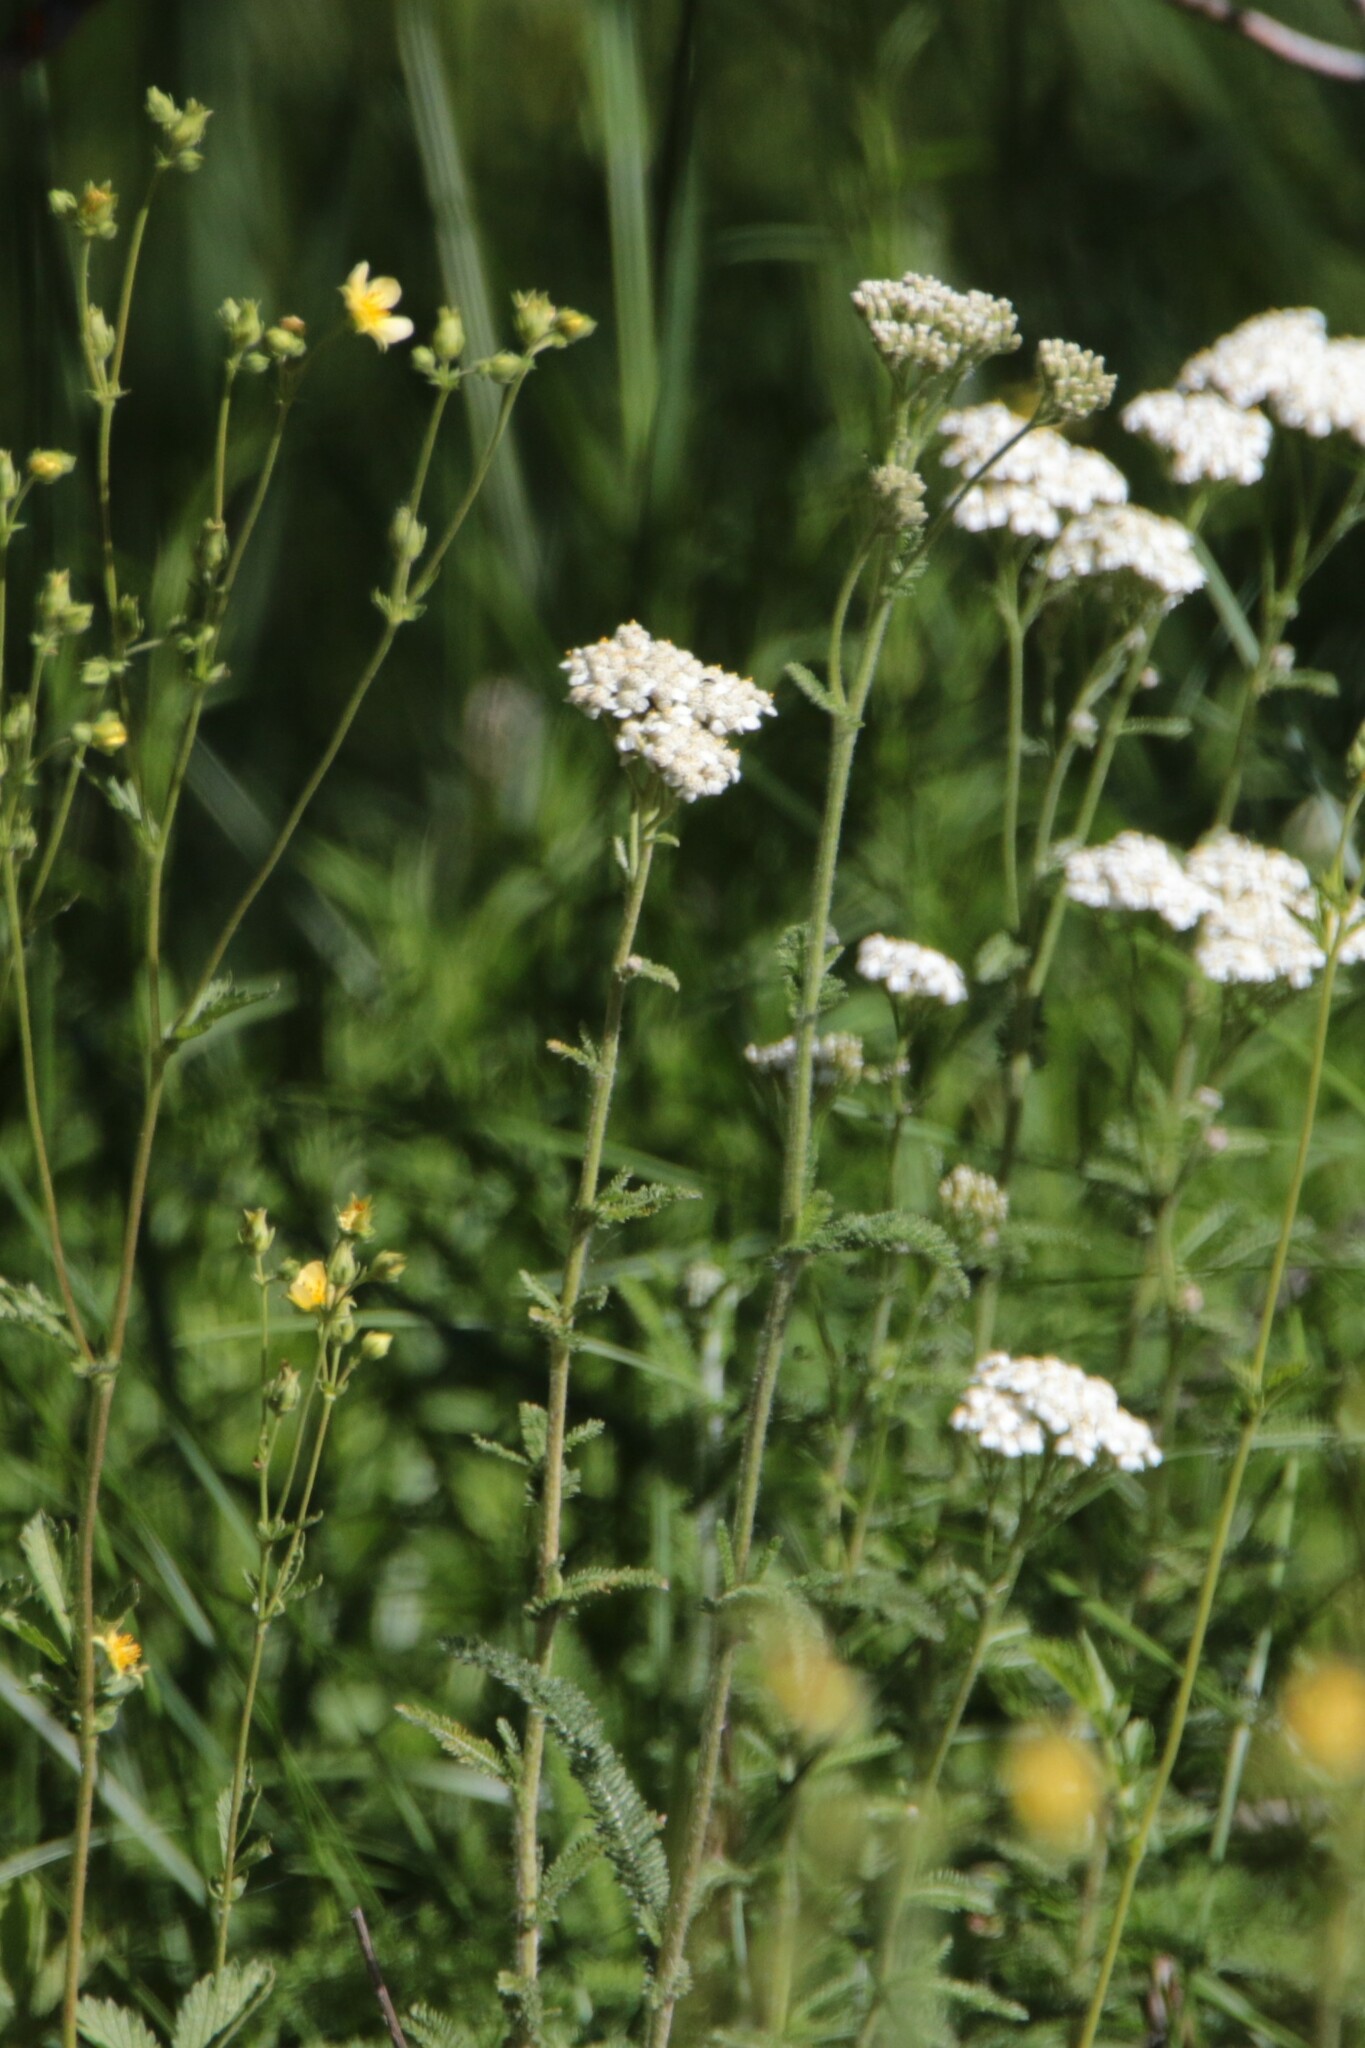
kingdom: Plantae
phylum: Tracheophyta
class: Magnoliopsida
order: Asterales
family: Asteraceae
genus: Achillea
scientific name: Achillea millefolium
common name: Yarrow
